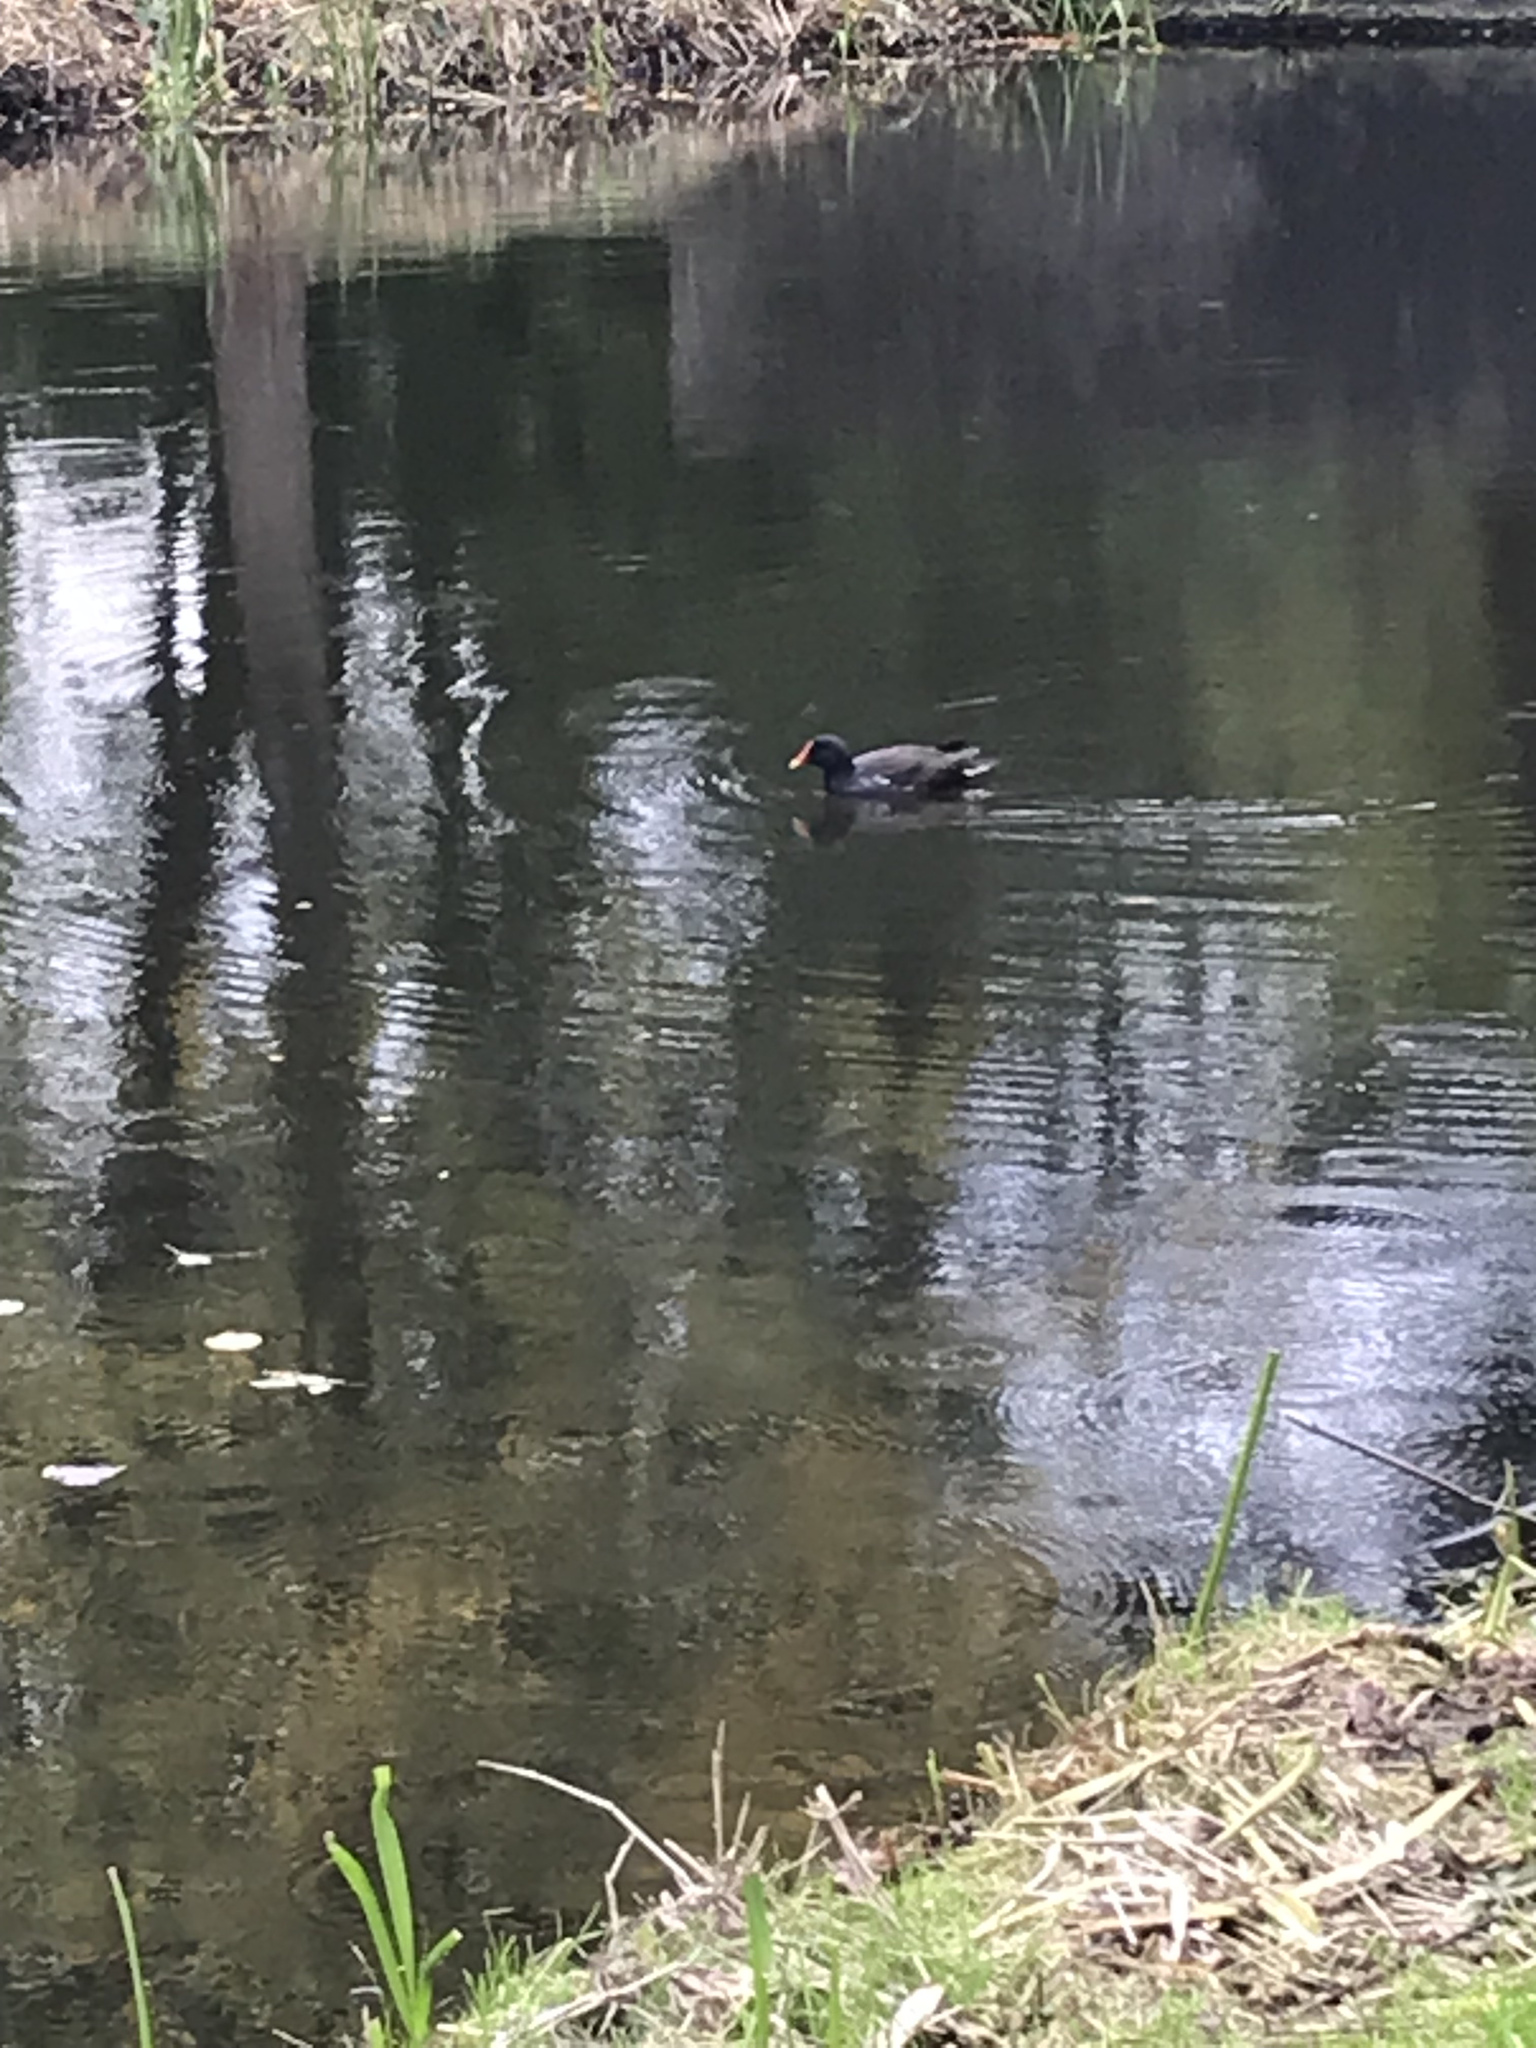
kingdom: Animalia
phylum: Chordata
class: Aves
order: Gruiformes
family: Rallidae
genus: Gallinula
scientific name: Gallinula chloropus
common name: Common moorhen
